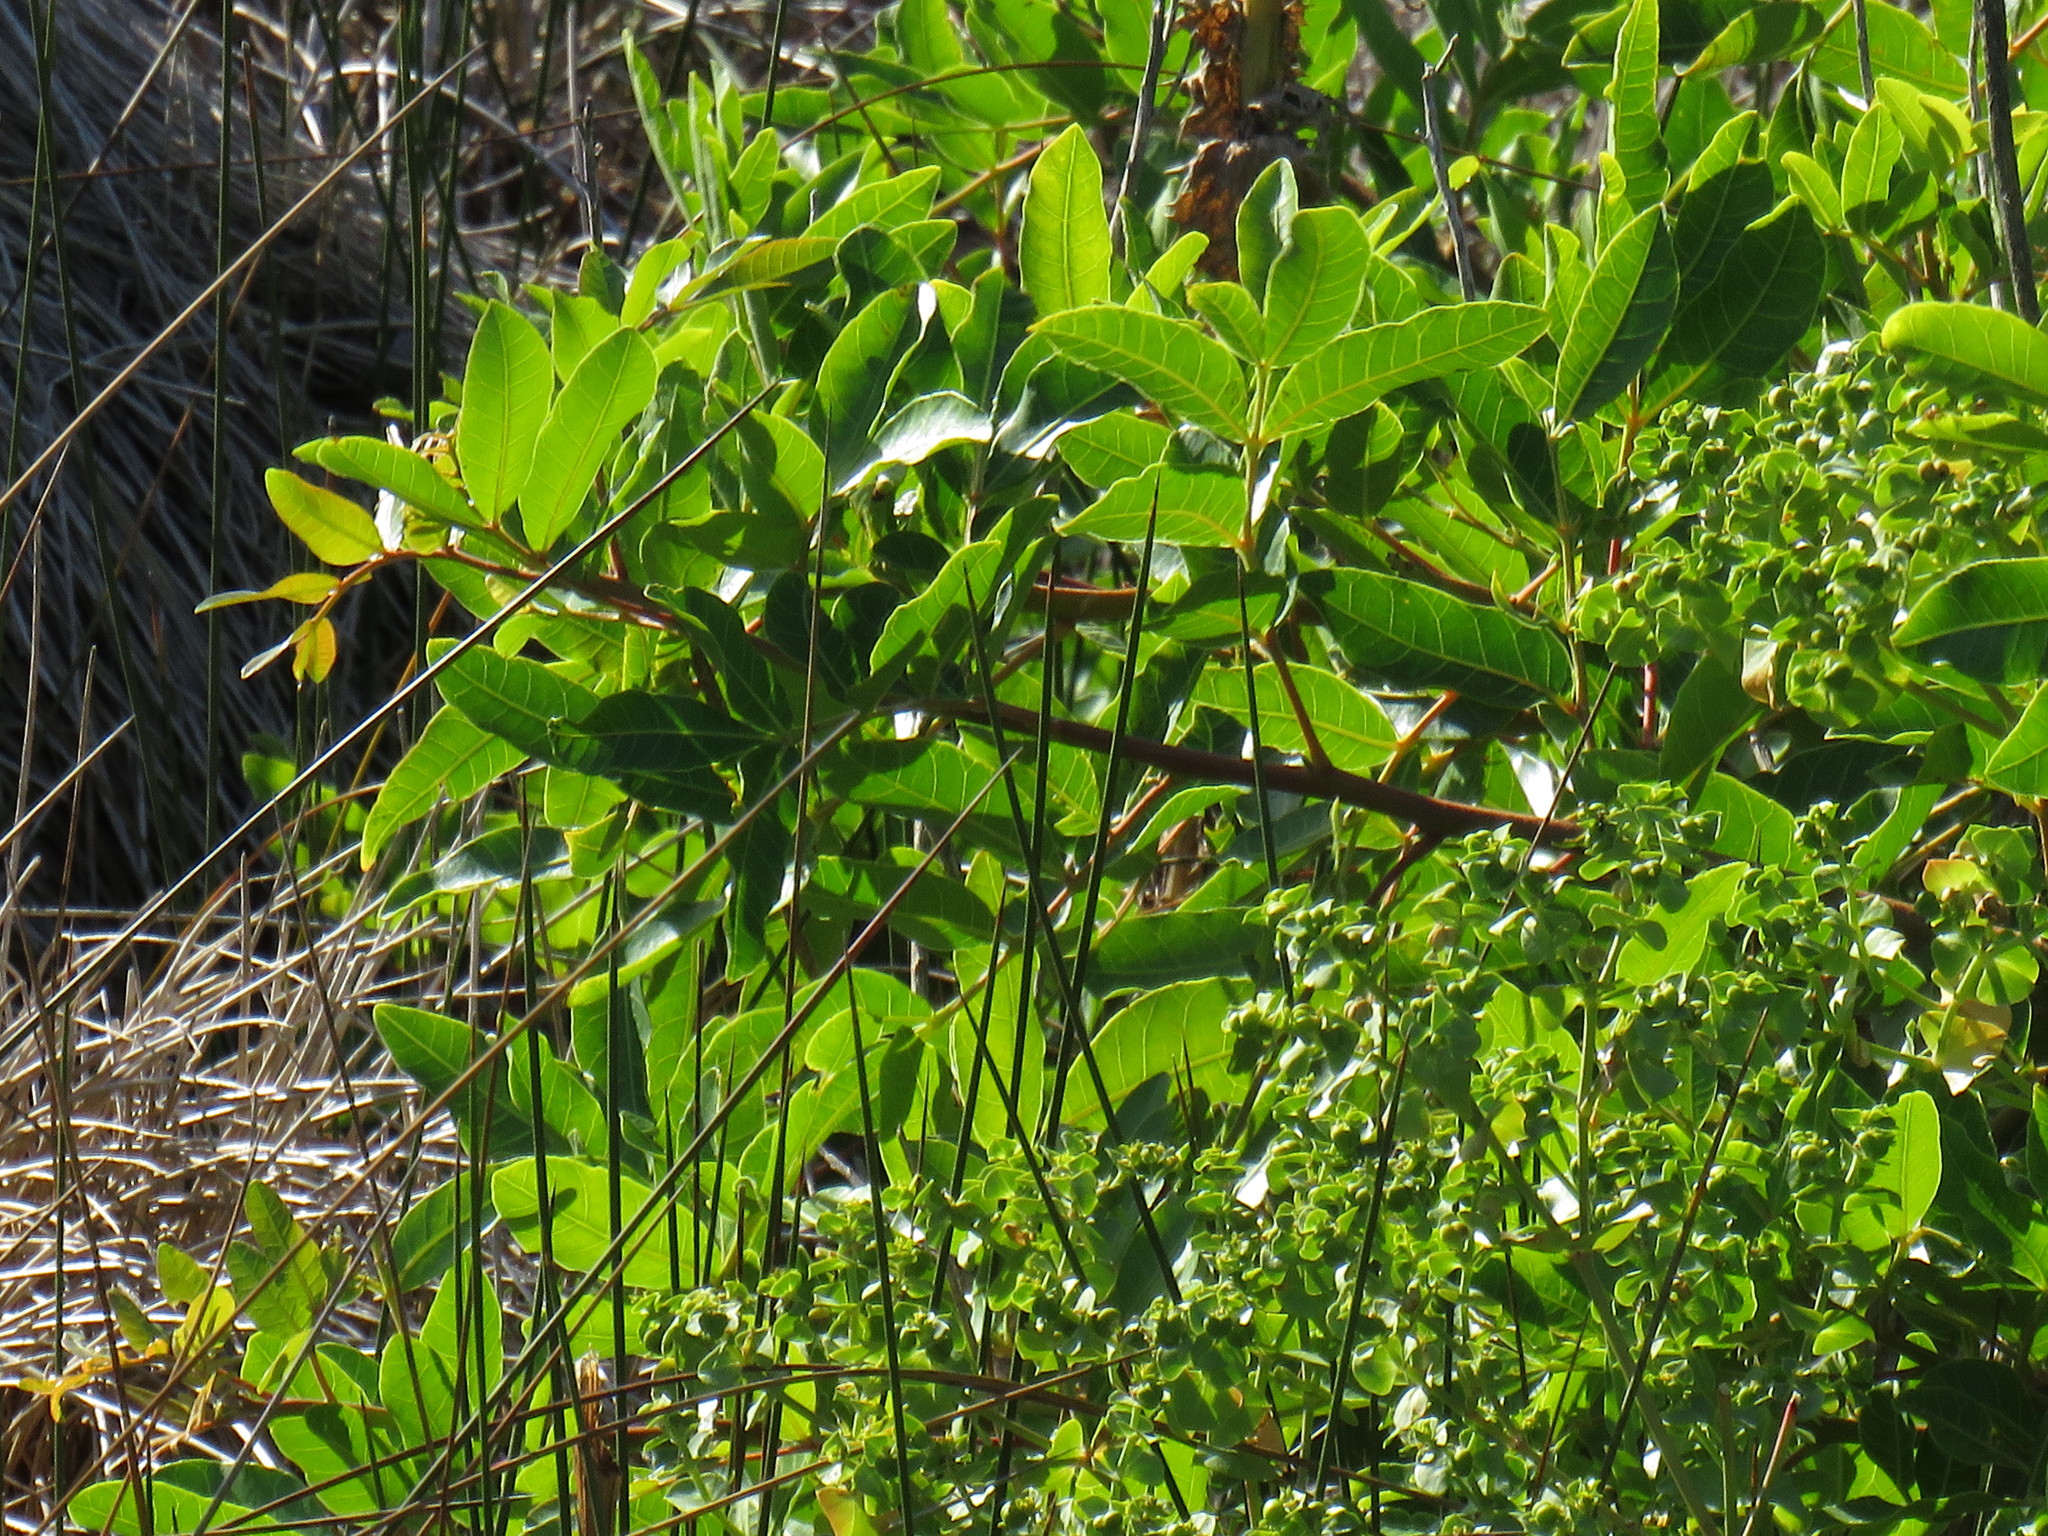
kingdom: Plantae
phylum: Tracheophyta
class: Magnoliopsida
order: Sapindales
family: Anacardiaceae
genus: Schinus
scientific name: Schinus terebinthifolia
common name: Brazilian peppertree
